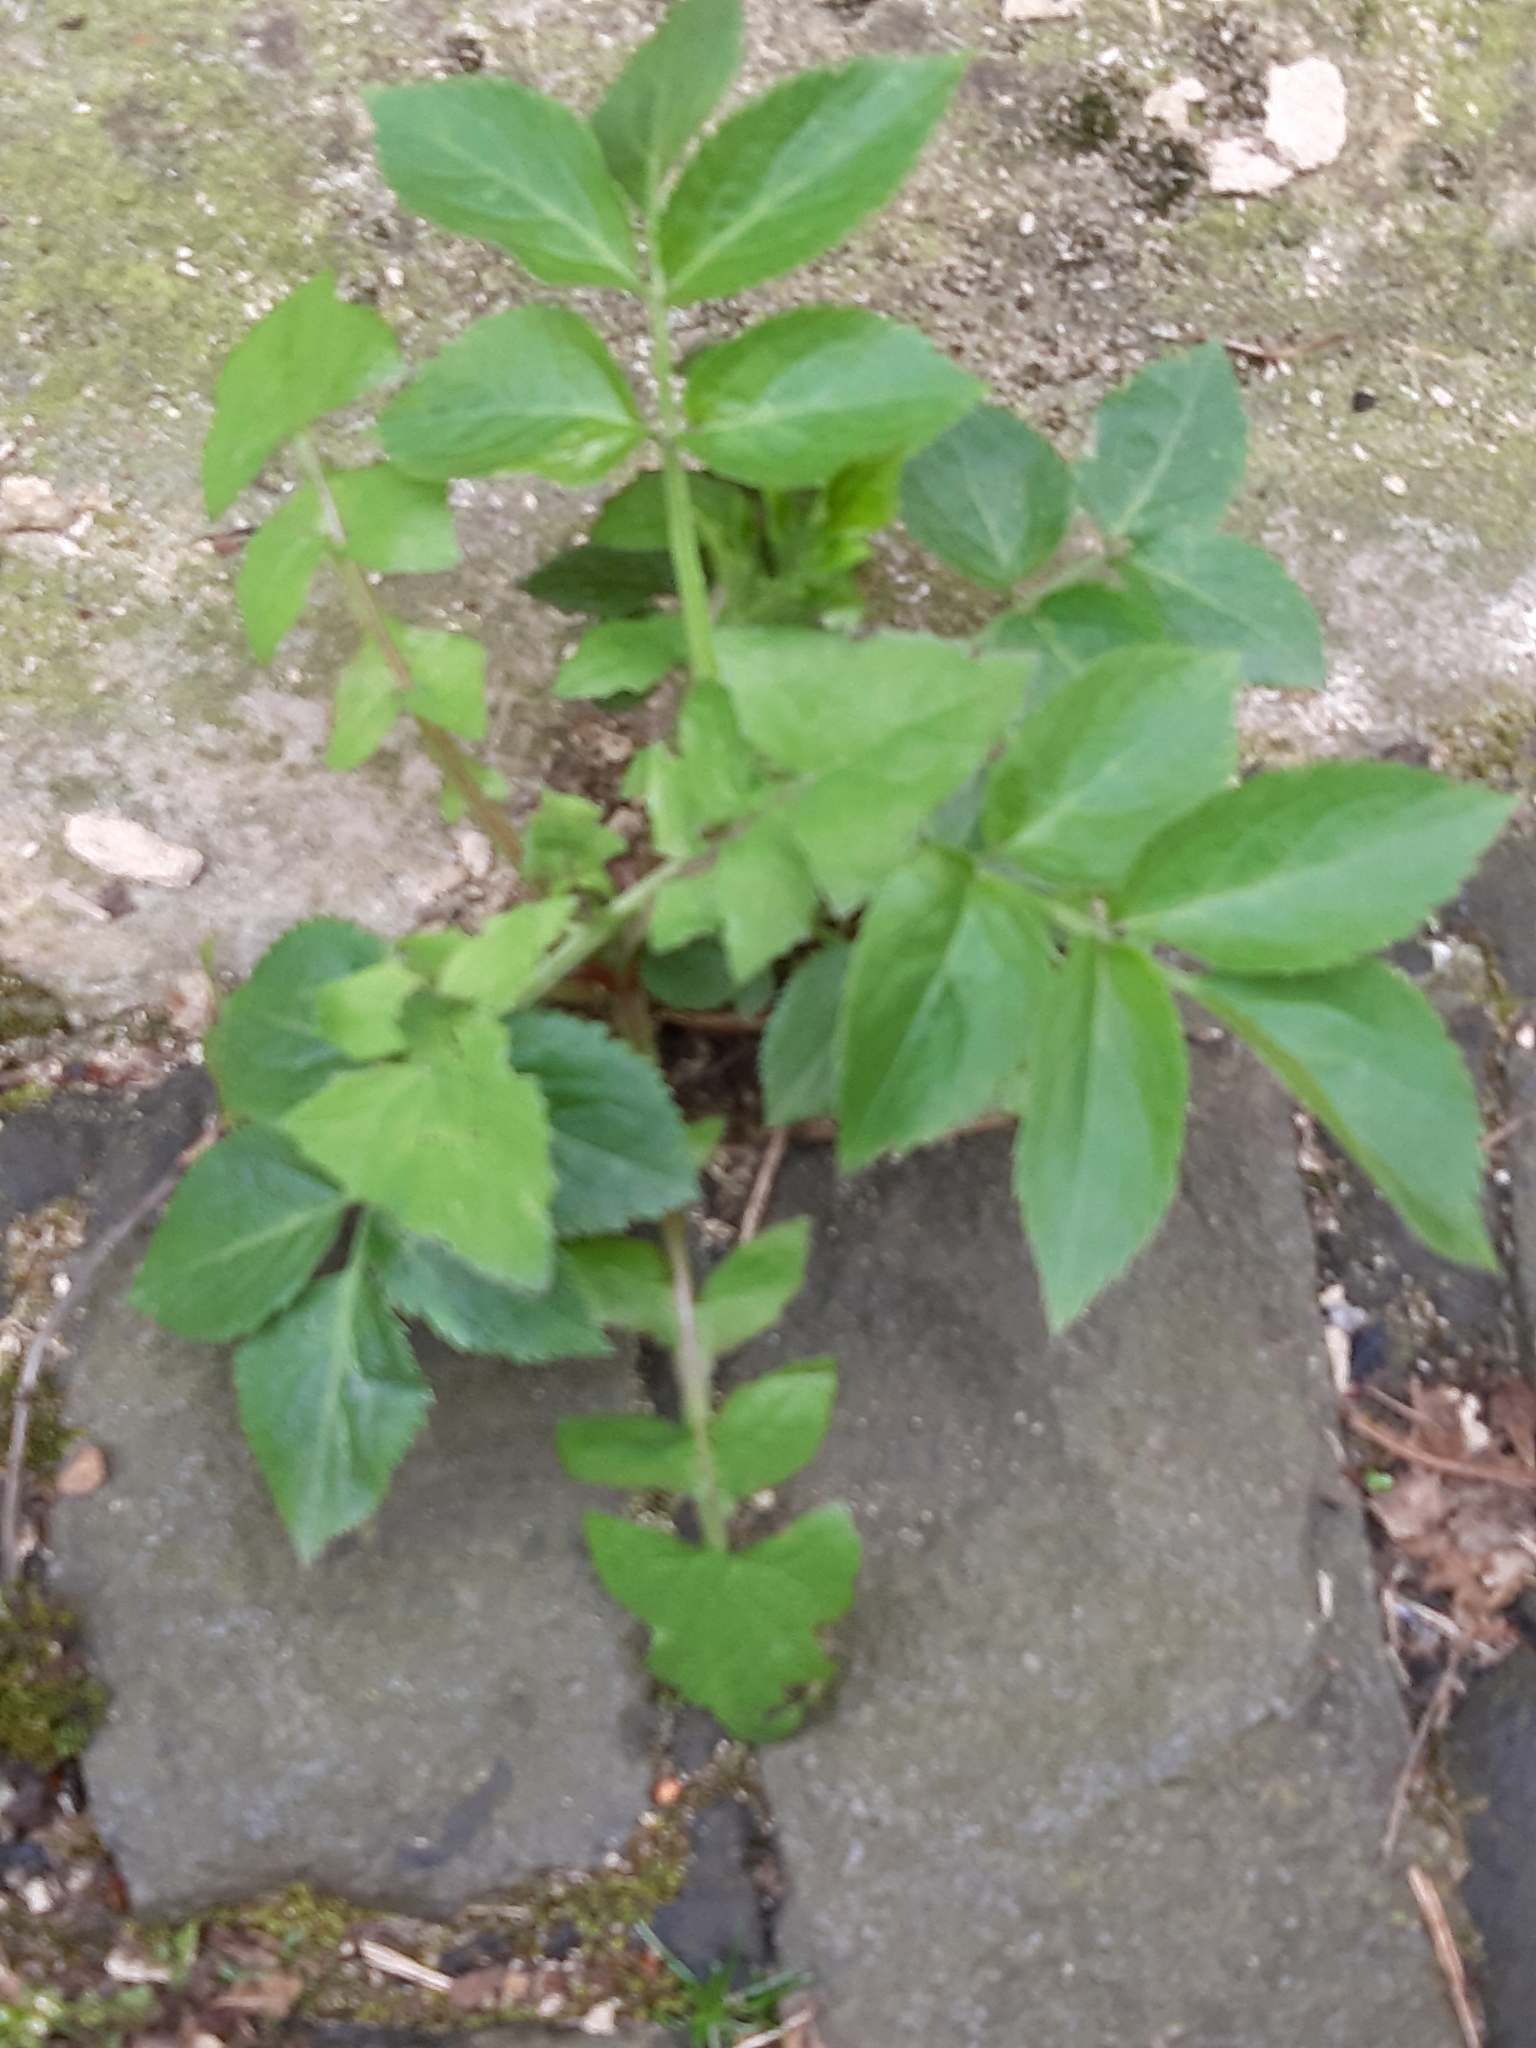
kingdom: Plantae
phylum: Tracheophyta
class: Magnoliopsida
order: Dipsacales
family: Viburnaceae
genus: Sambucus
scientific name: Sambucus nigra
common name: Elder
